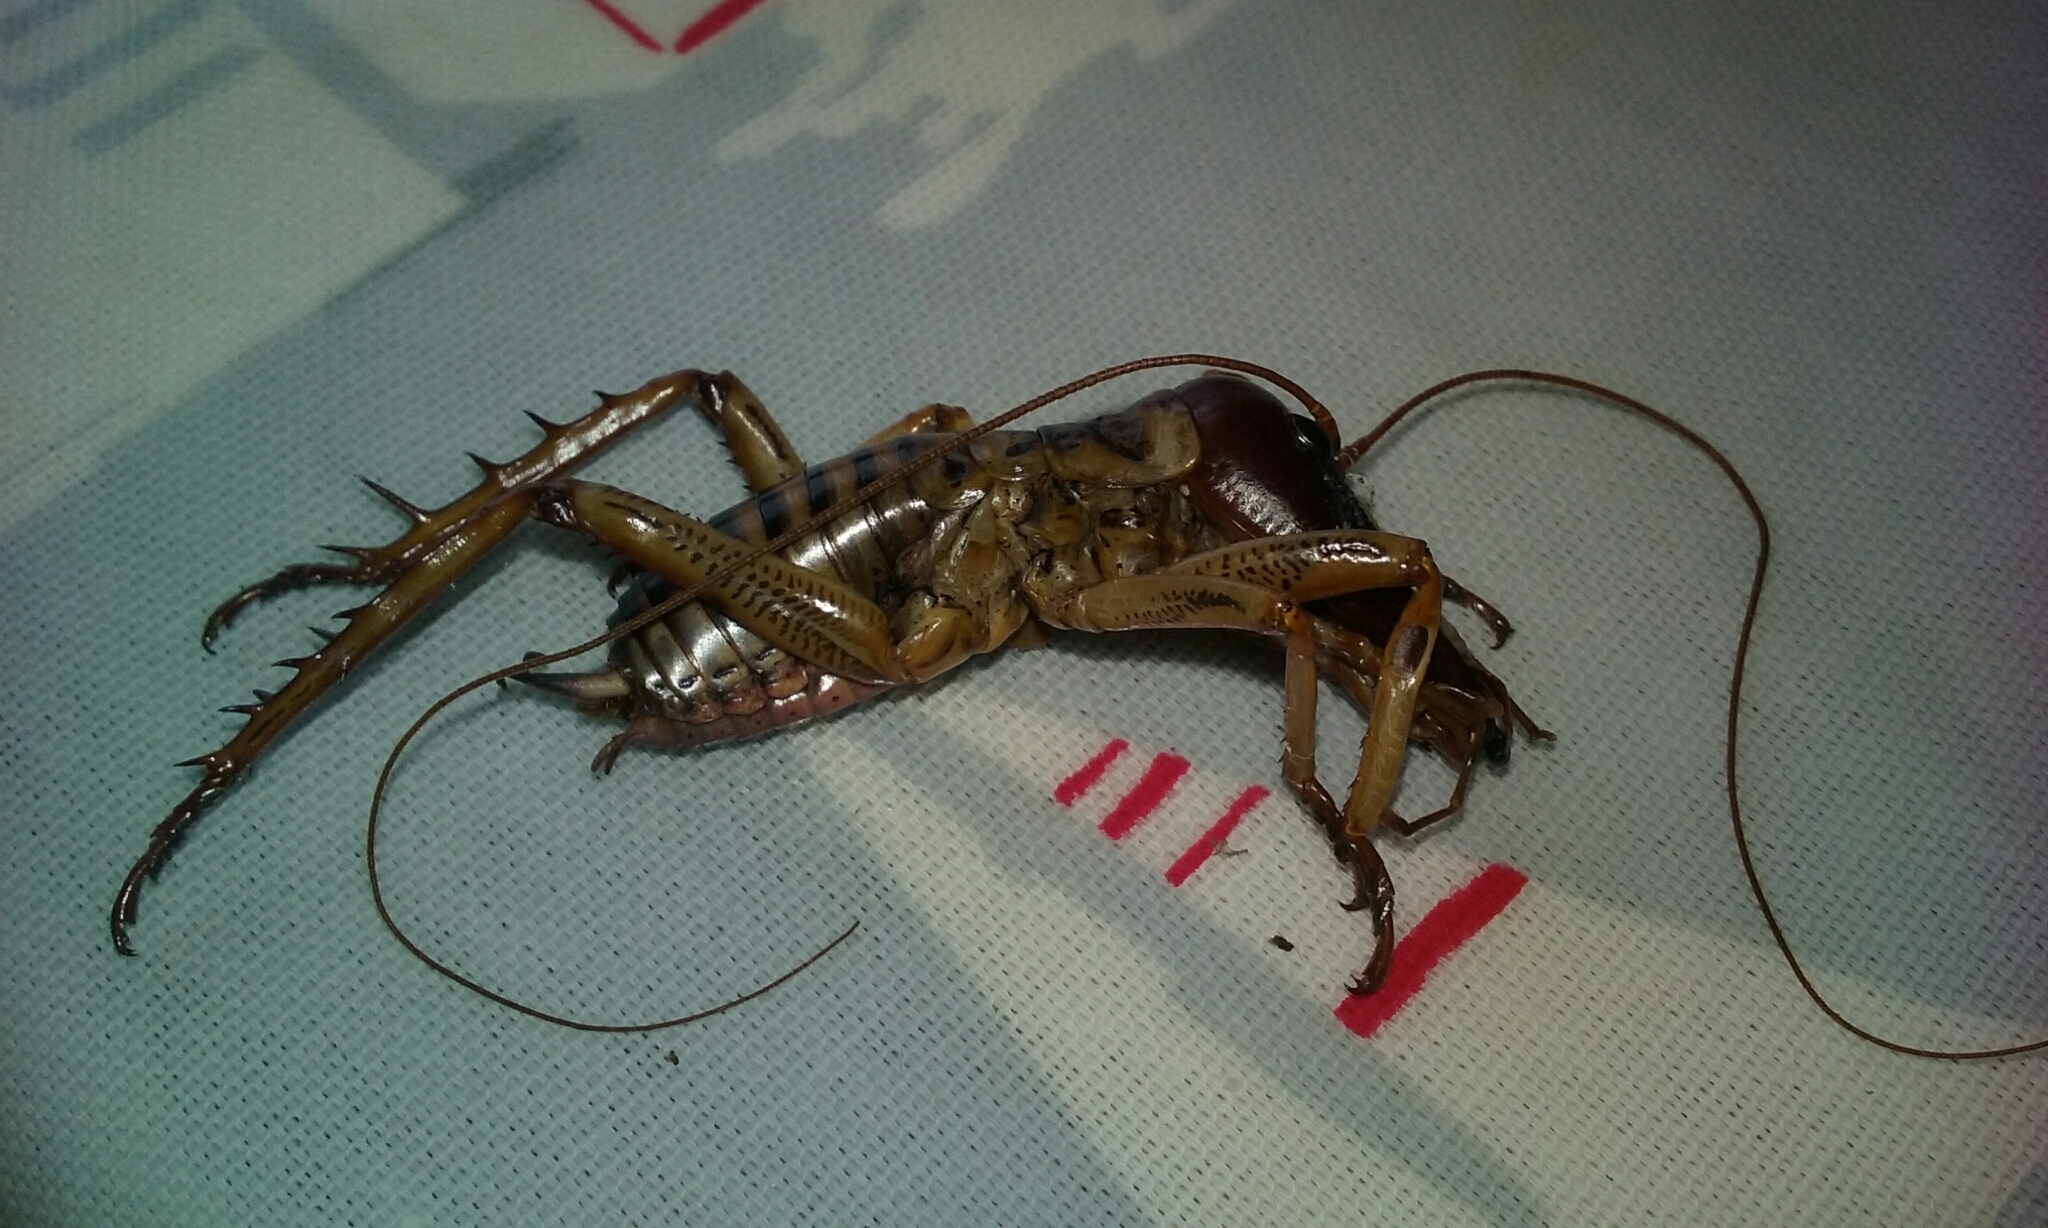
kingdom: Animalia
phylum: Arthropoda
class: Insecta
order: Orthoptera
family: Anostostomatidae
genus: Hemideina
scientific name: Hemideina crassidens
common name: Wellington tree weta
